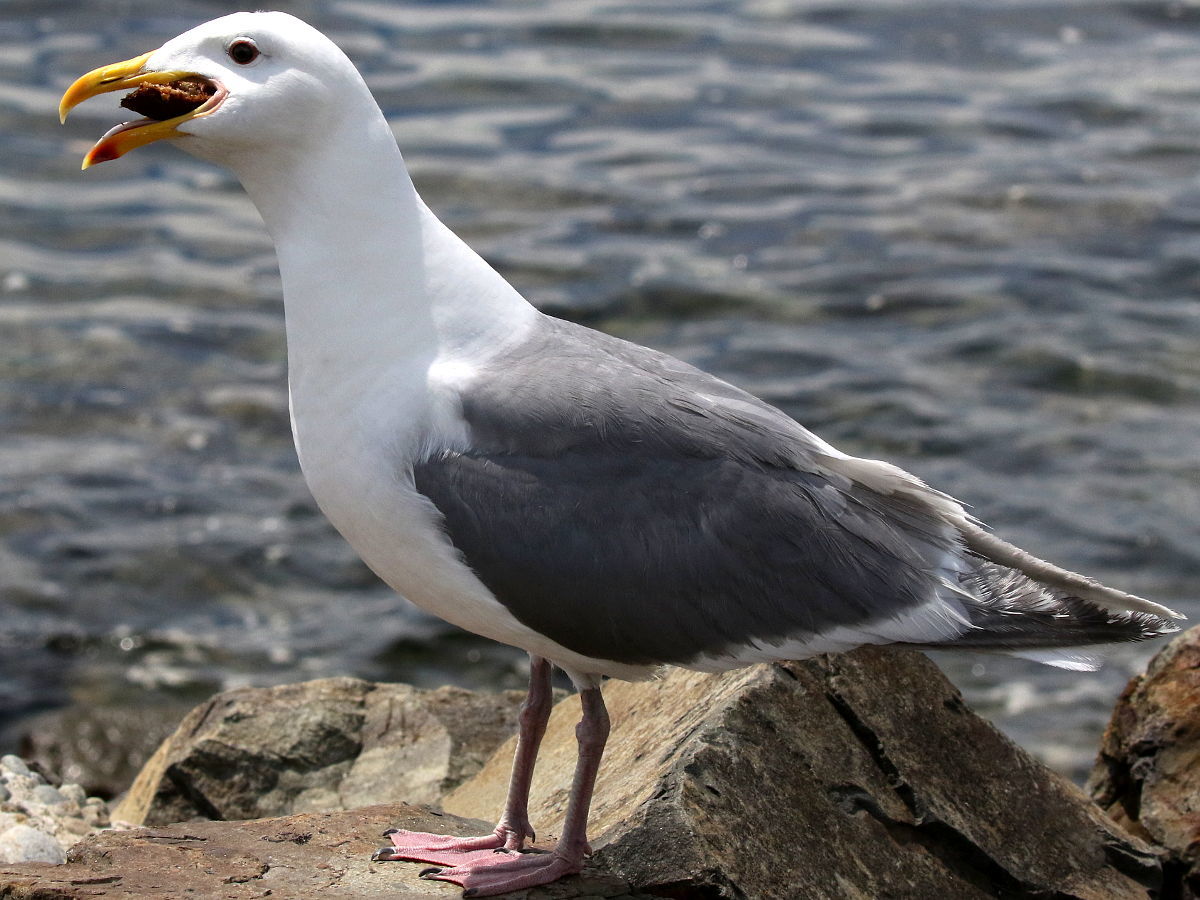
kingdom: Animalia
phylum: Chordata
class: Aves
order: Charadriiformes
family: Laridae
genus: Larus
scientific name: Larus occidentalis
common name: Western gull
